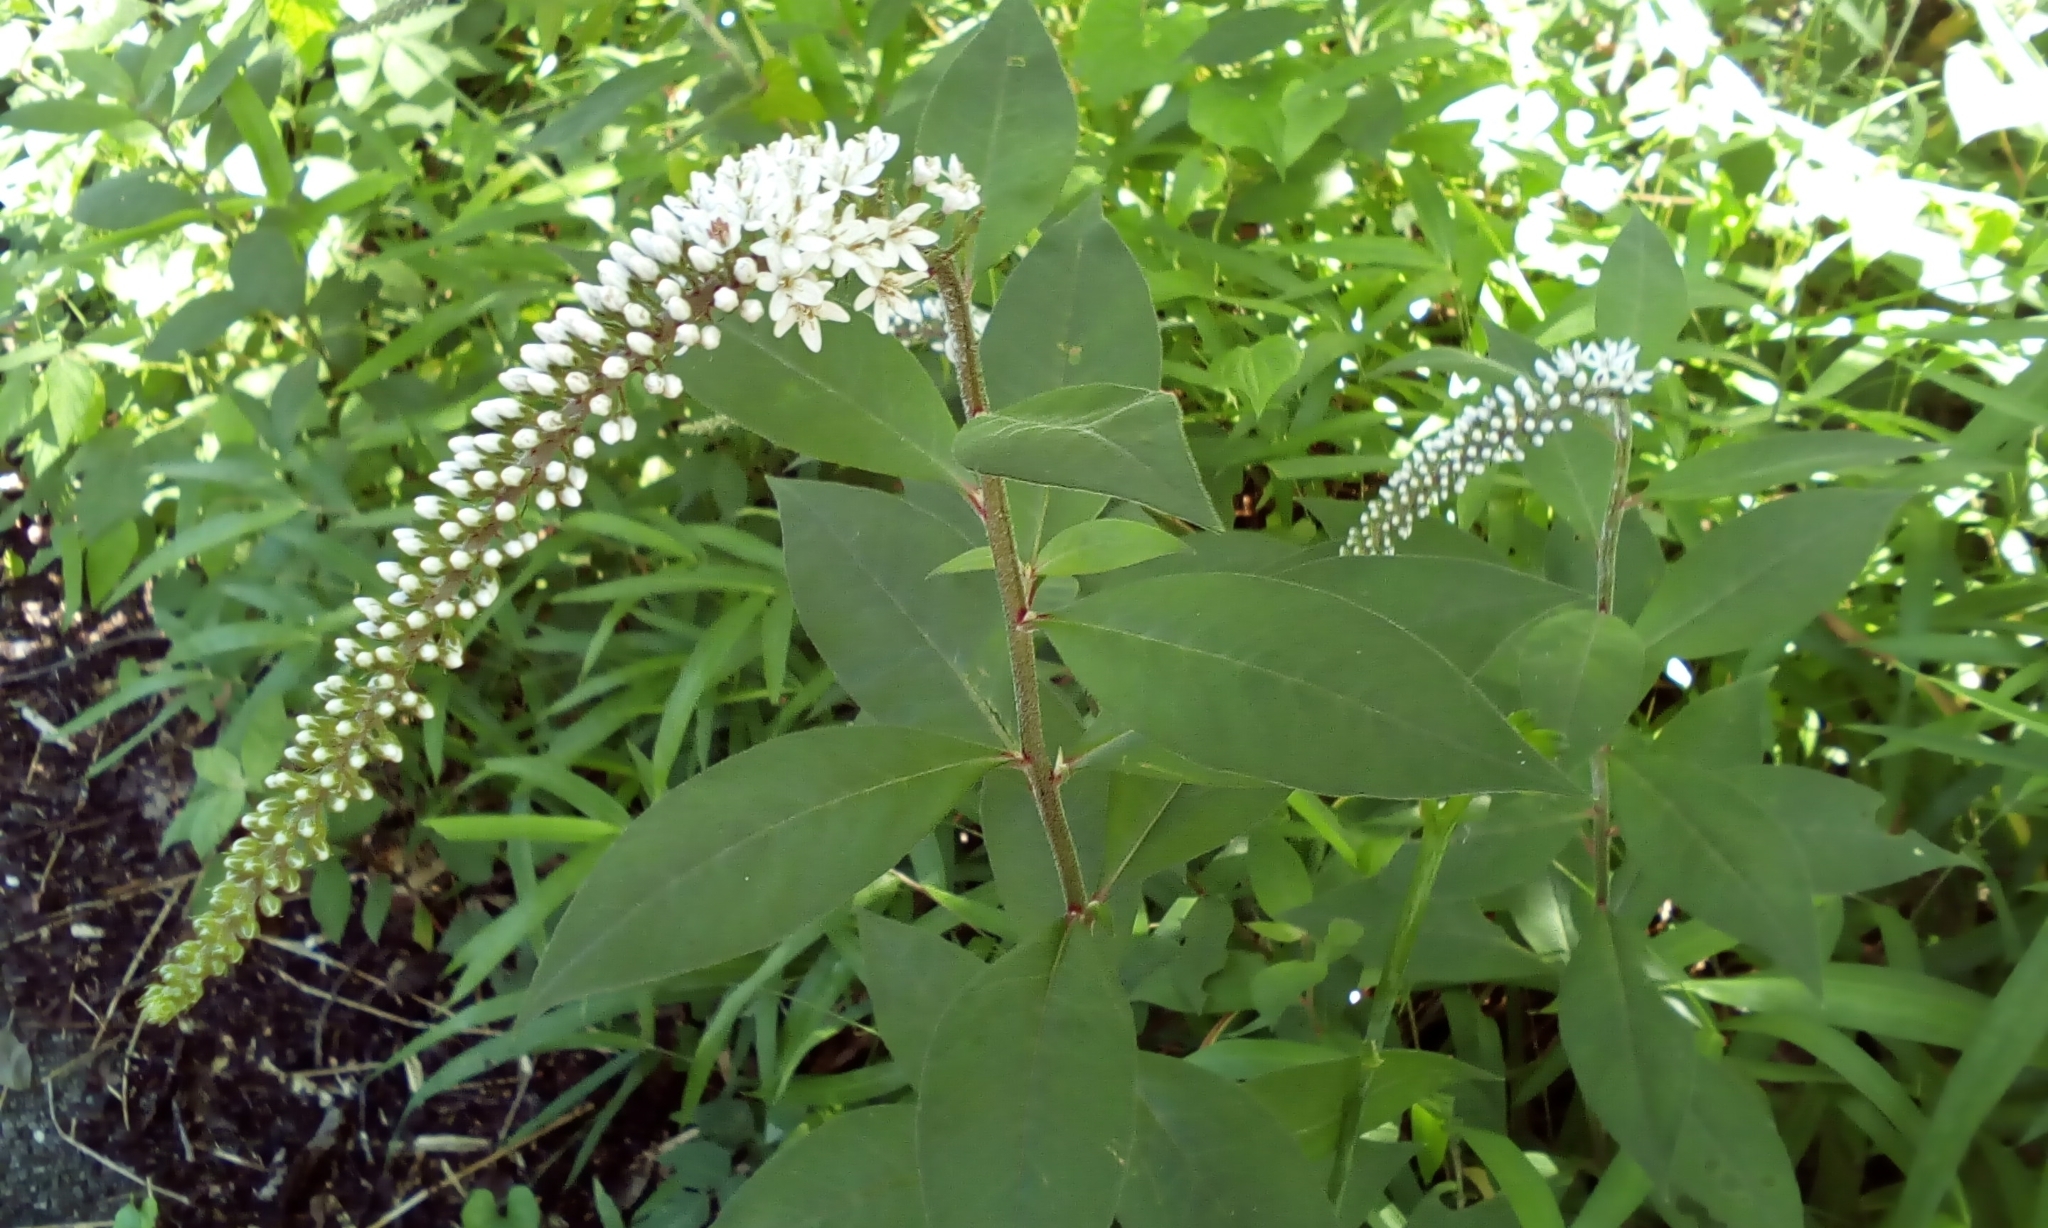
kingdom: Plantae
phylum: Tracheophyta
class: Magnoliopsida
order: Ericales
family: Primulaceae
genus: Lysimachia
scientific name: Lysimachia clethroides
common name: Gooseneck loosestrife
